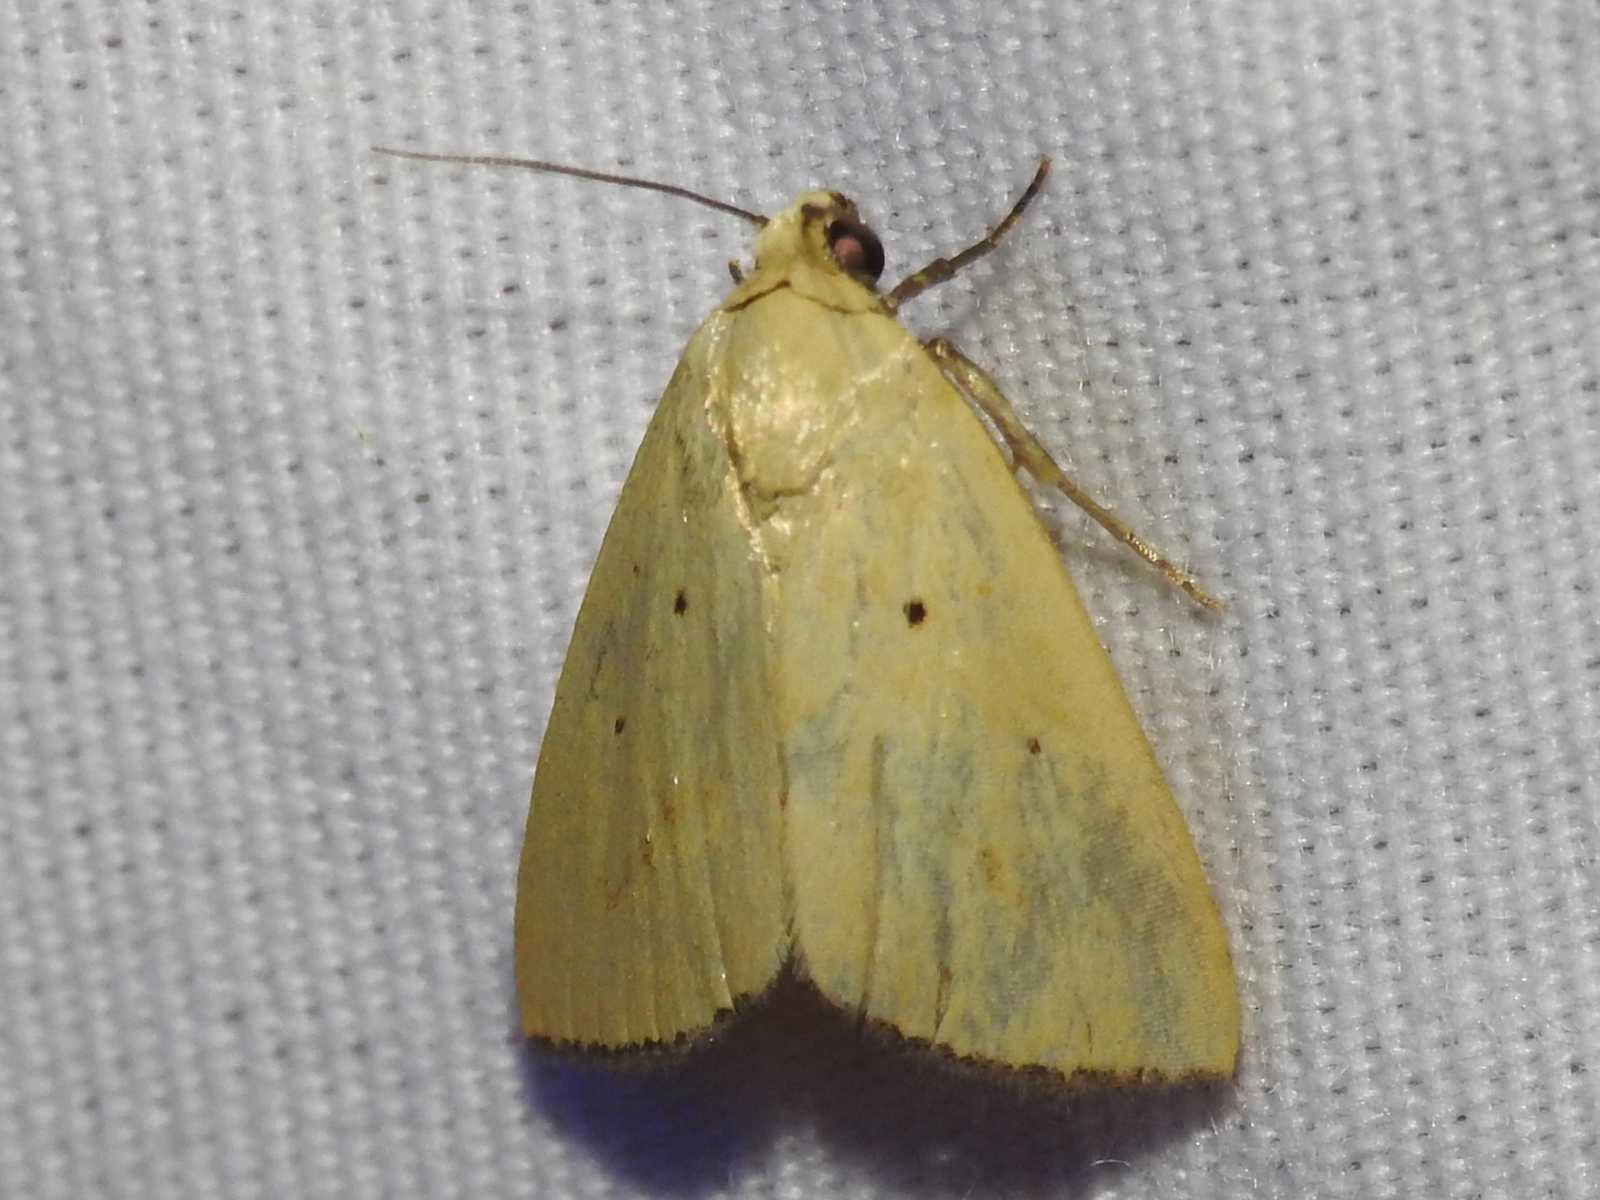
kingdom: Animalia
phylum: Arthropoda
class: Insecta
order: Lepidoptera
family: Noctuidae
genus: Marimatha
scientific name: Marimatha nigrofimbria
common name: Black-bordered lemon moth
